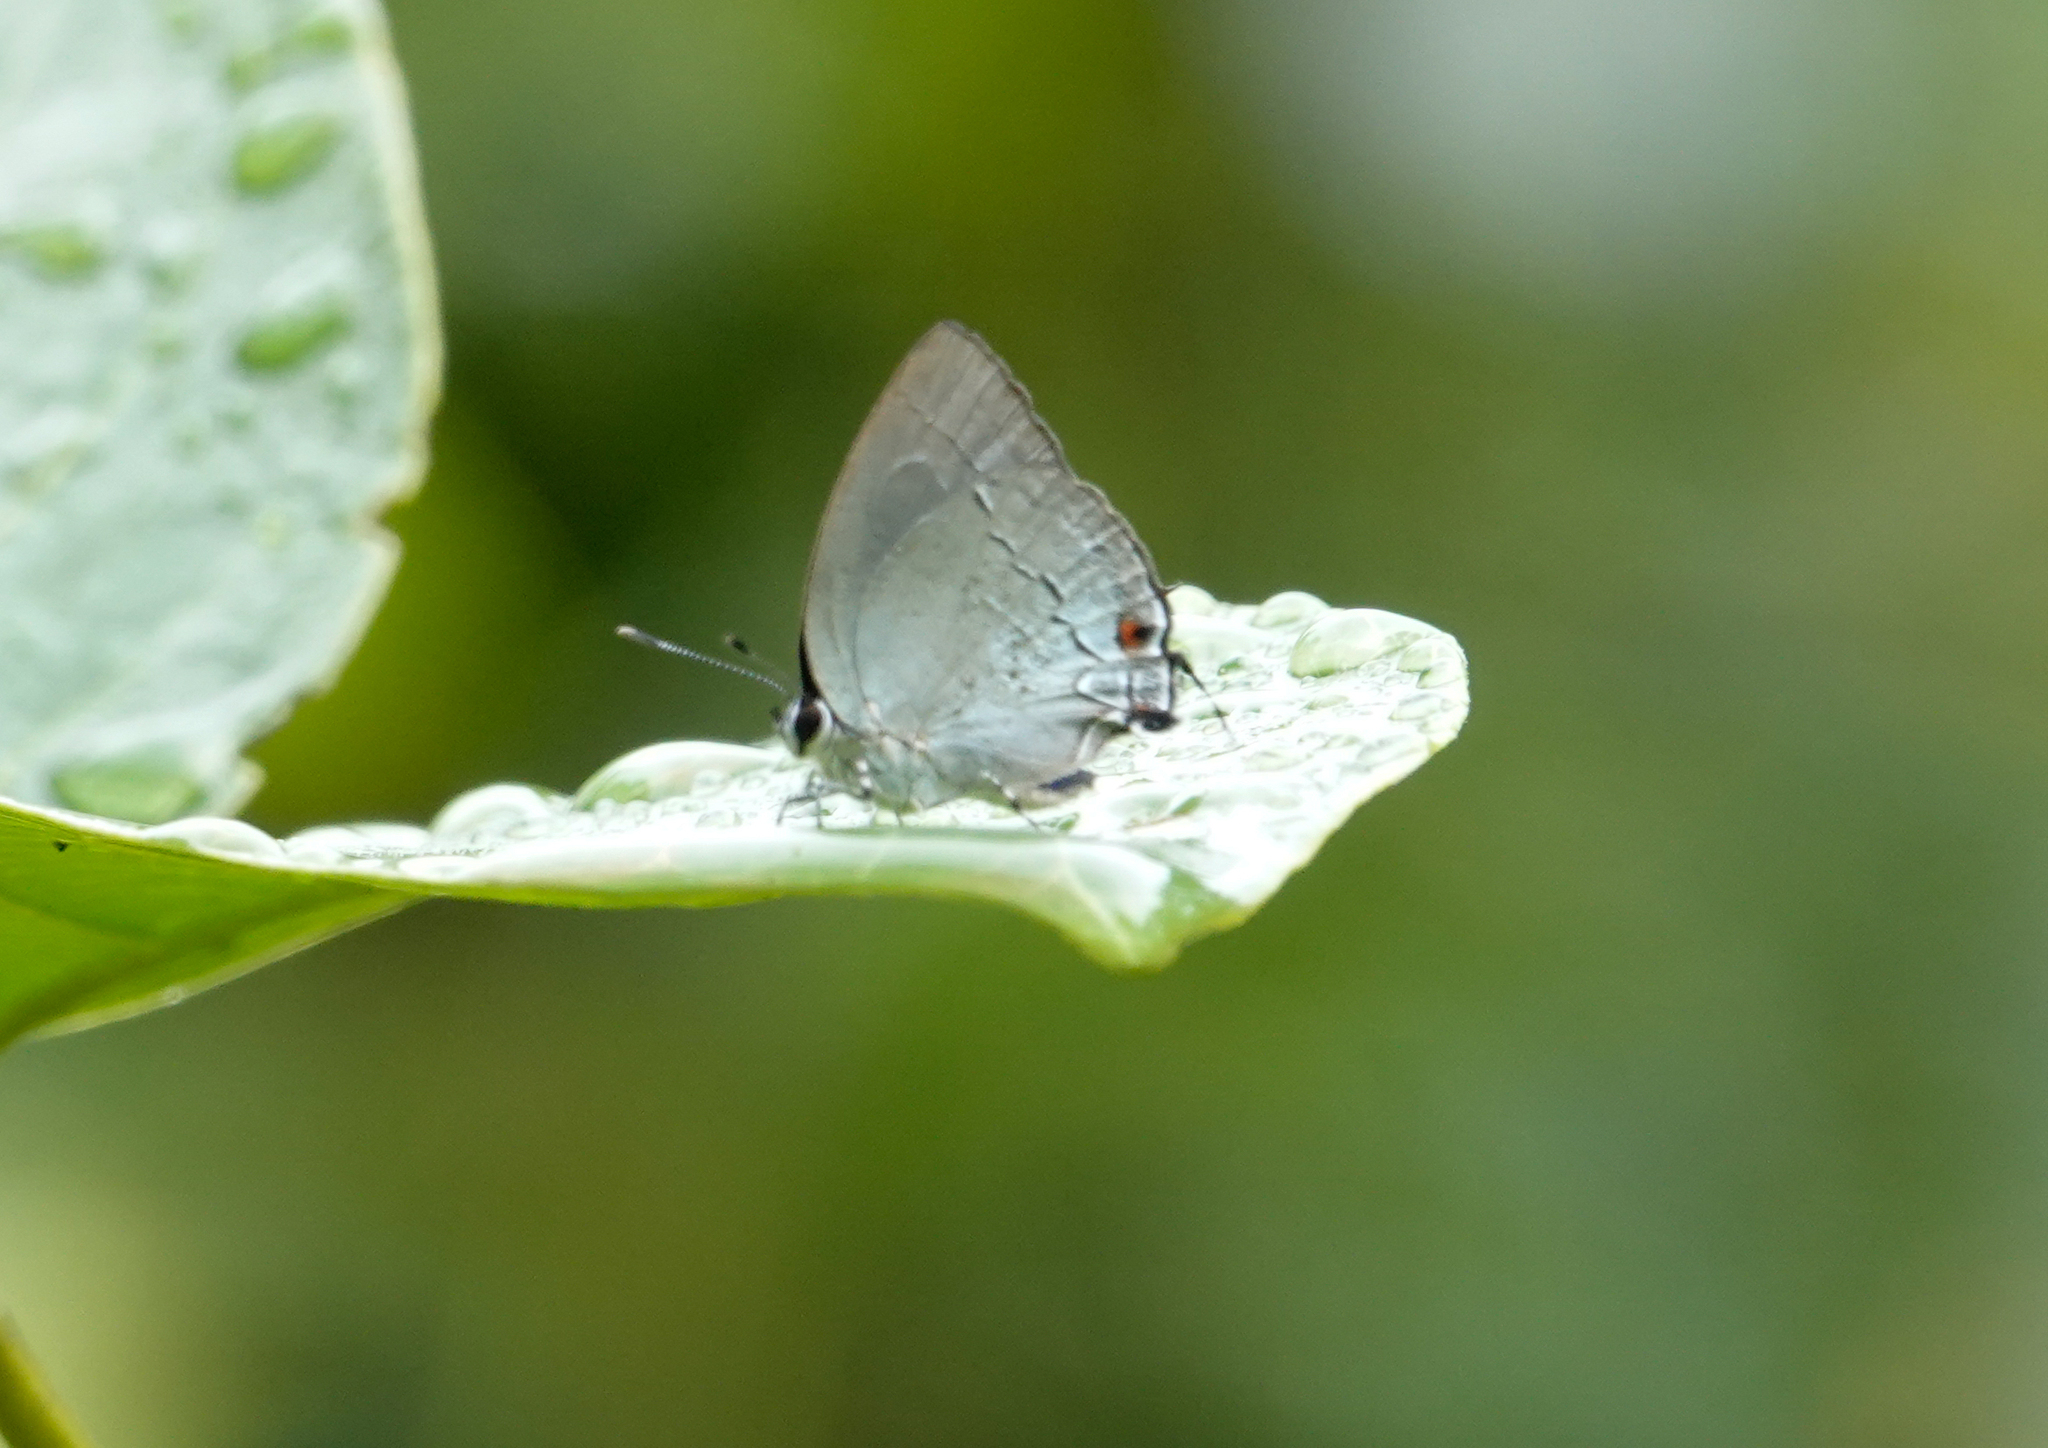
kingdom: Animalia
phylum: Arthropoda
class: Insecta
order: Lepidoptera
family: Lycaenidae
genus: Thecla
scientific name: Thecla lydus
